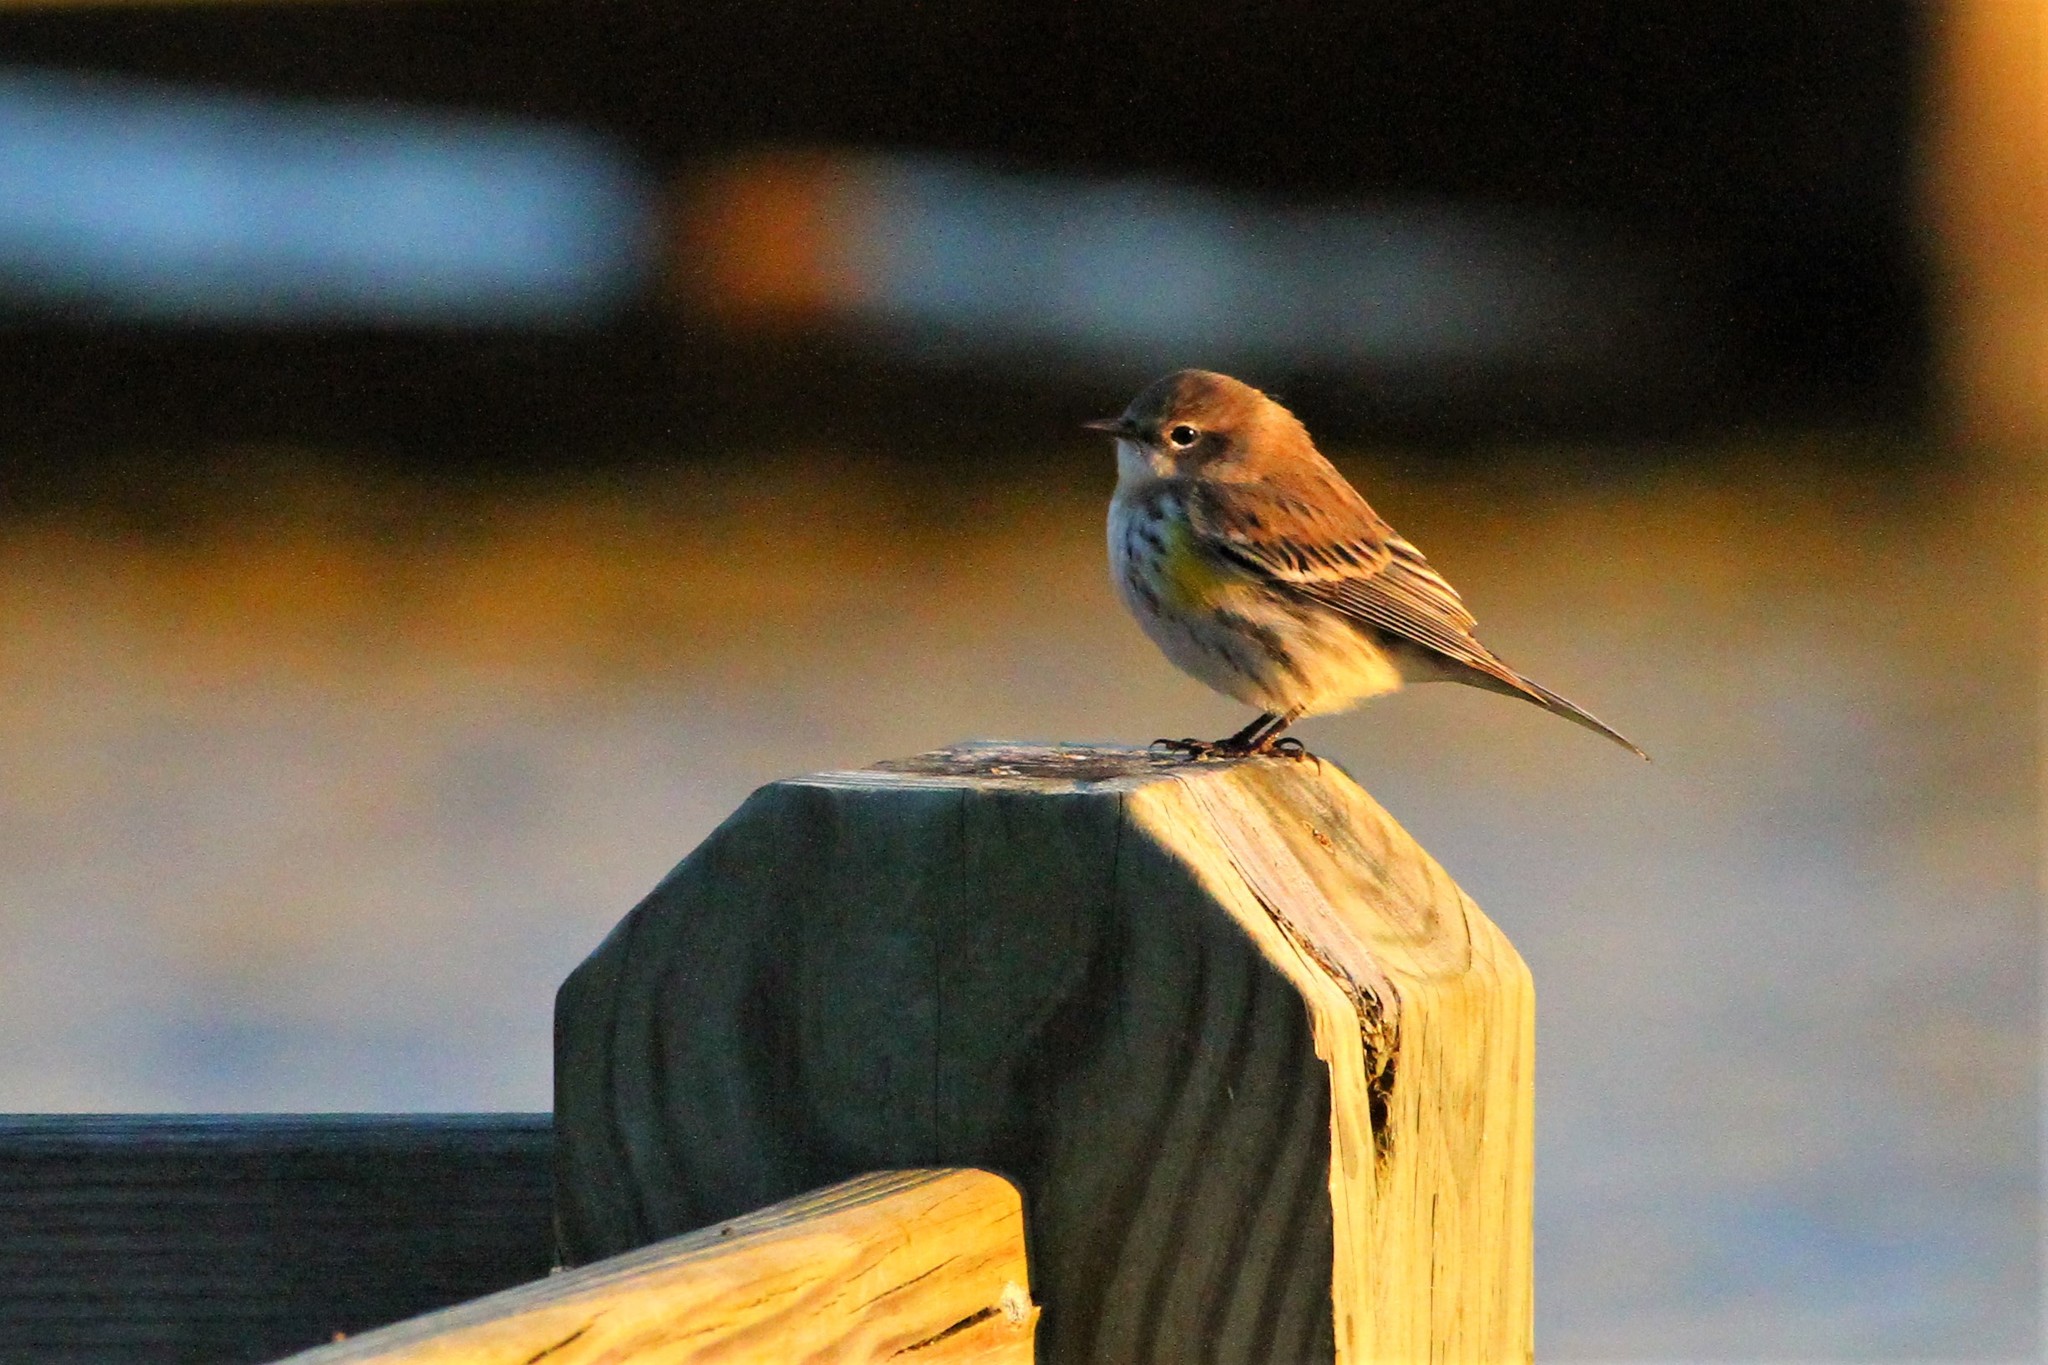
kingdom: Animalia
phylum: Chordata
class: Aves
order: Passeriformes
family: Parulidae
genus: Setophaga
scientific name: Setophaga coronata
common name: Myrtle warbler
